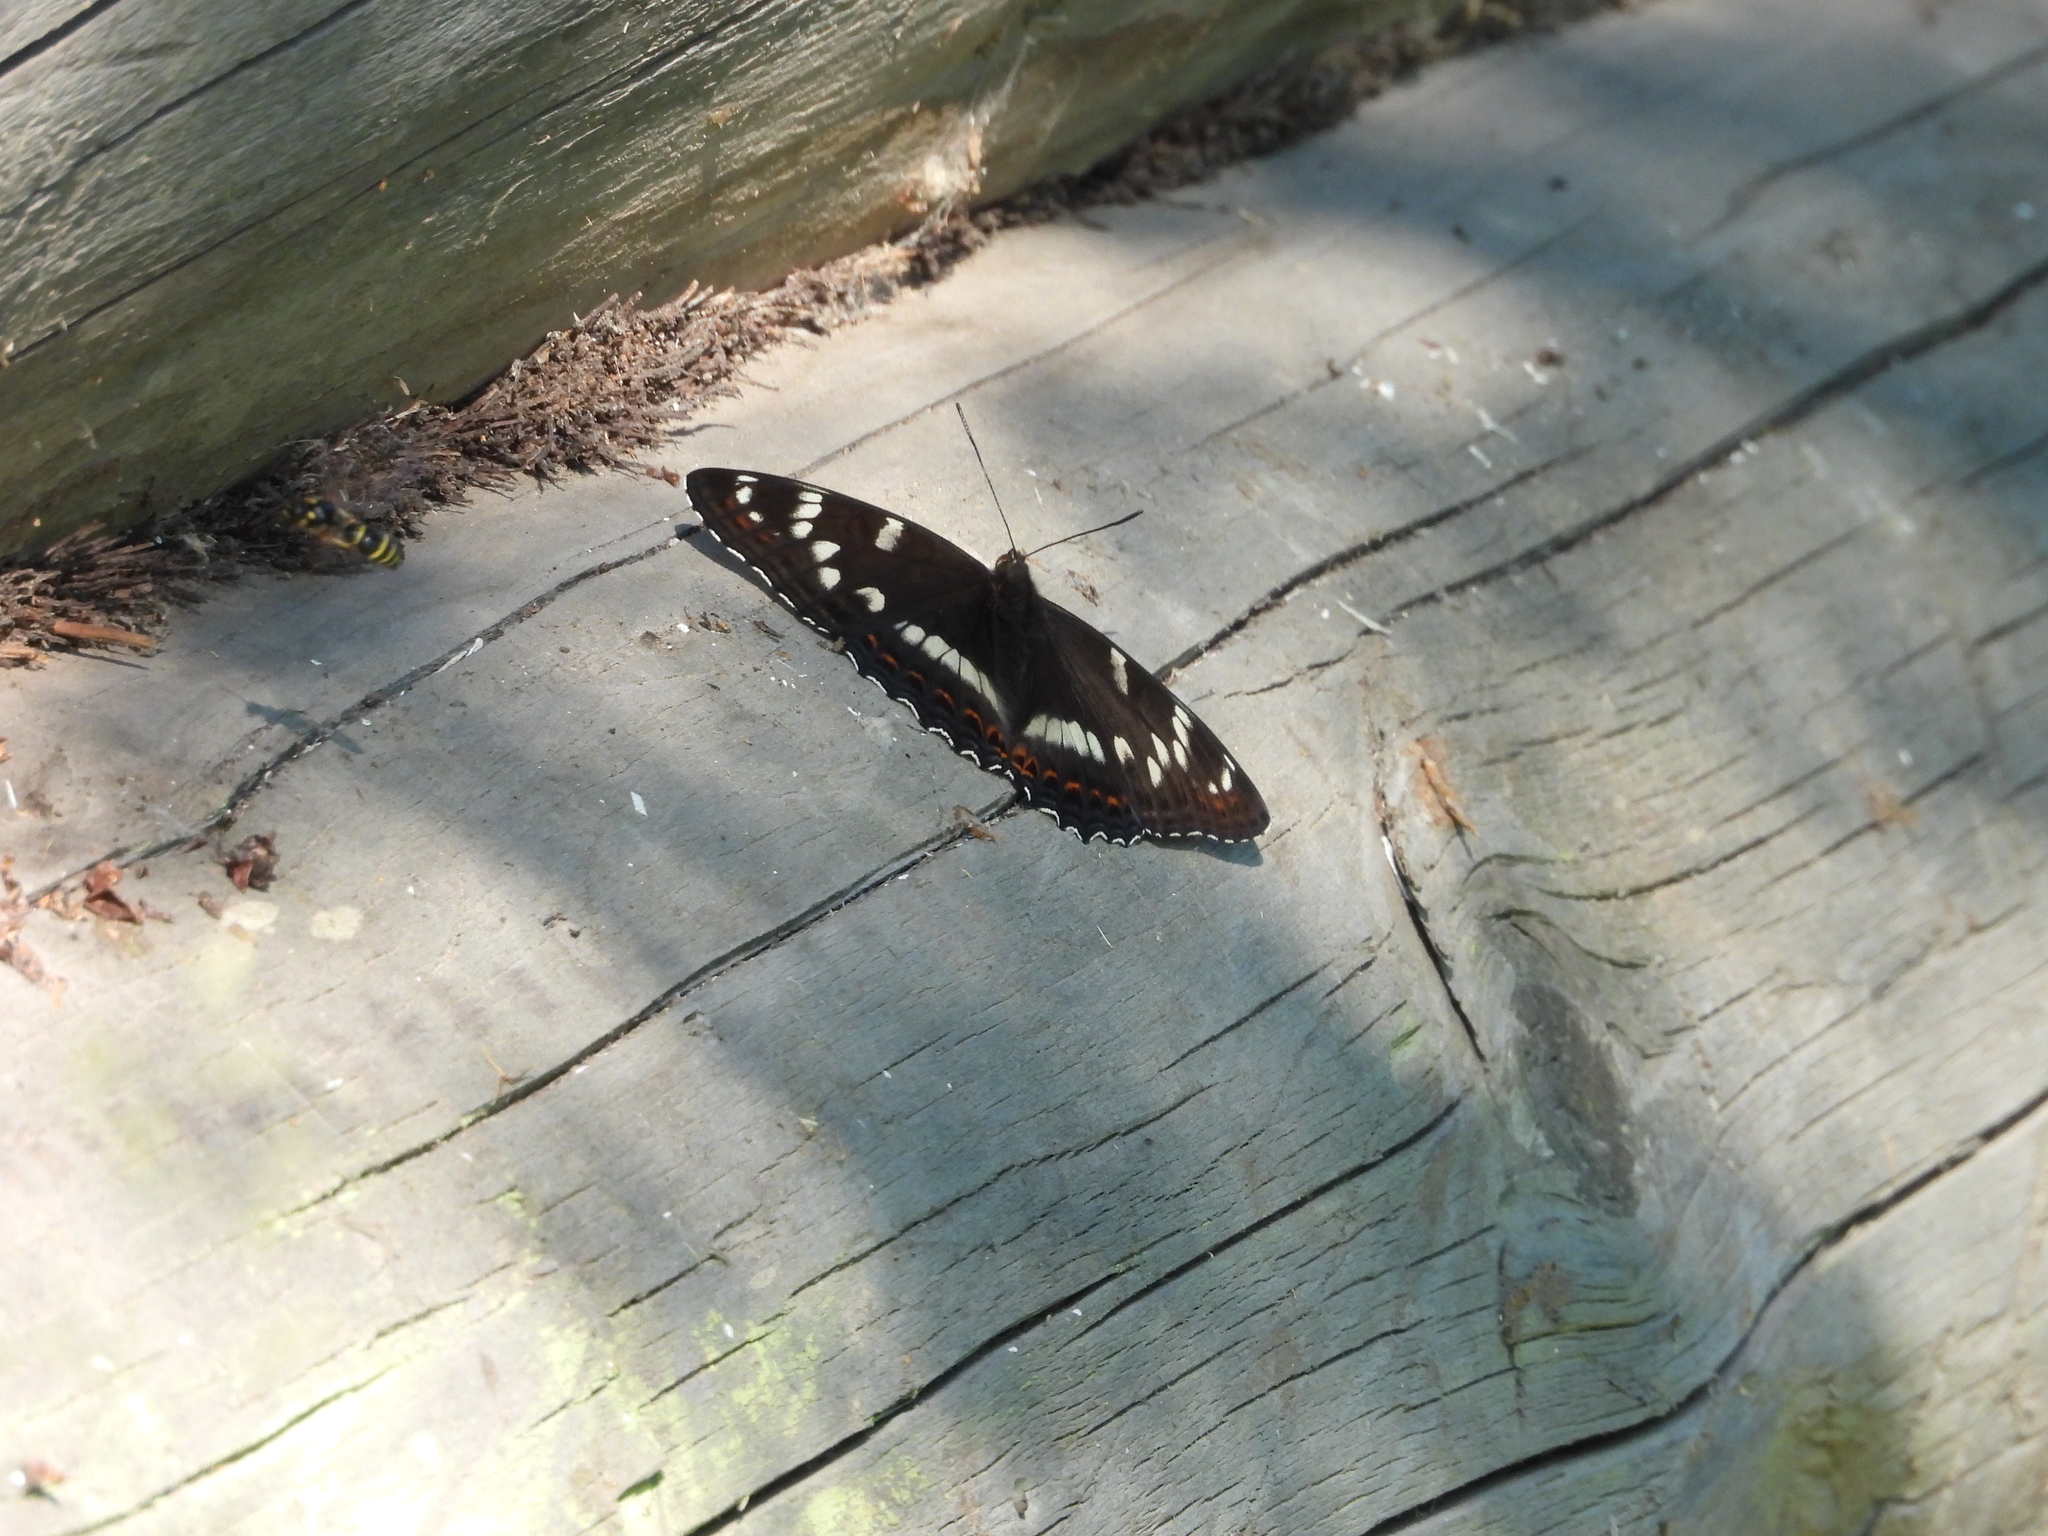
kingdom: Animalia
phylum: Arthropoda
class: Insecta
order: Lepidoptera
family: Nymphalidae
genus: Limenitis
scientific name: Limenitis populi
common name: Poplar admiral
